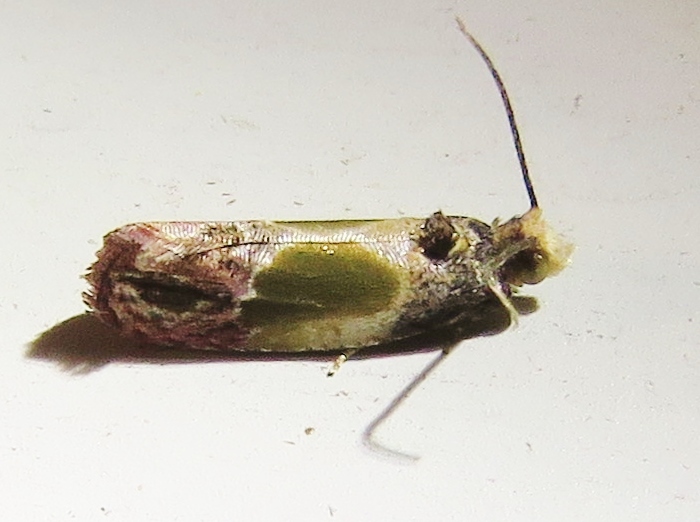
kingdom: Animalia
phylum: Arthropoda
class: Insecta
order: Lepidoptera
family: Tortricidae
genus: Eumarozia
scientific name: Eumarozia malachitana
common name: Sculptured moth
